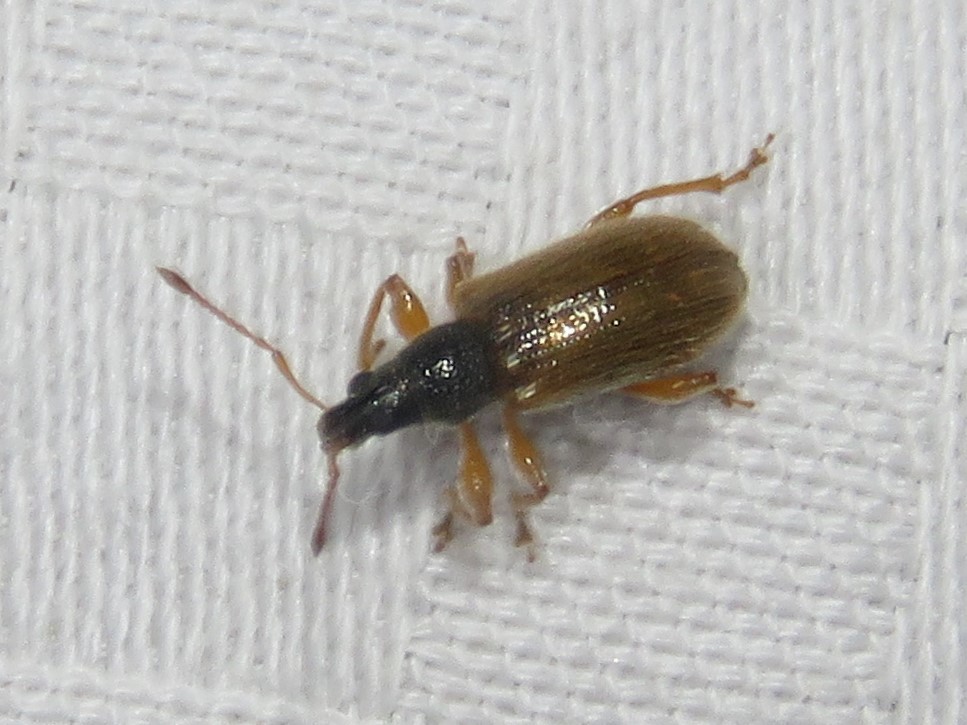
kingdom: Animalia
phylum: Arthropoda
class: Insecta
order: Coleoptera
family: Curculionidae
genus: Phyllobius
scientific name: Phyllobius oblongus
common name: Brown leaf weevil
